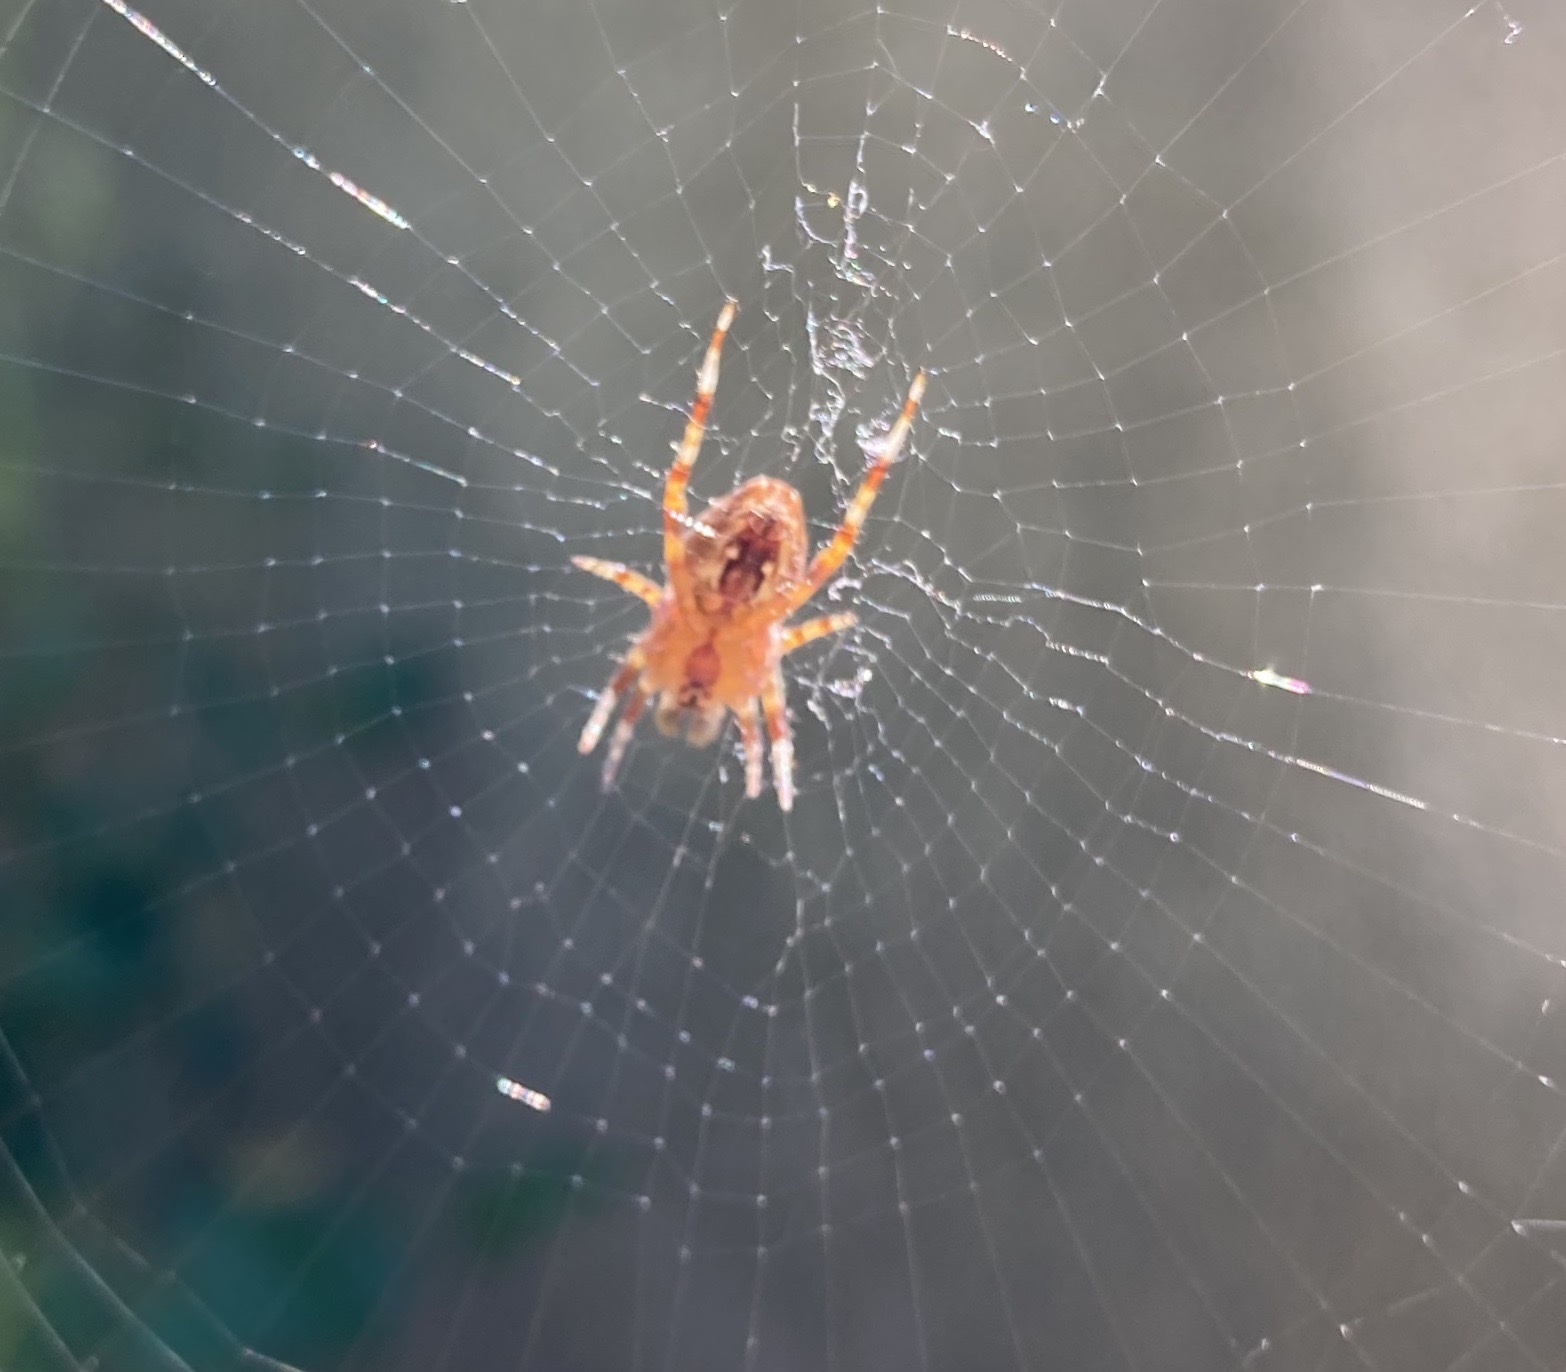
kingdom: Animalia
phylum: Arthropoda
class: Arachnida
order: Araneae
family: Araneidae
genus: Araneus
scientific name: Araneus diadematus
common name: Cross orbweaver
